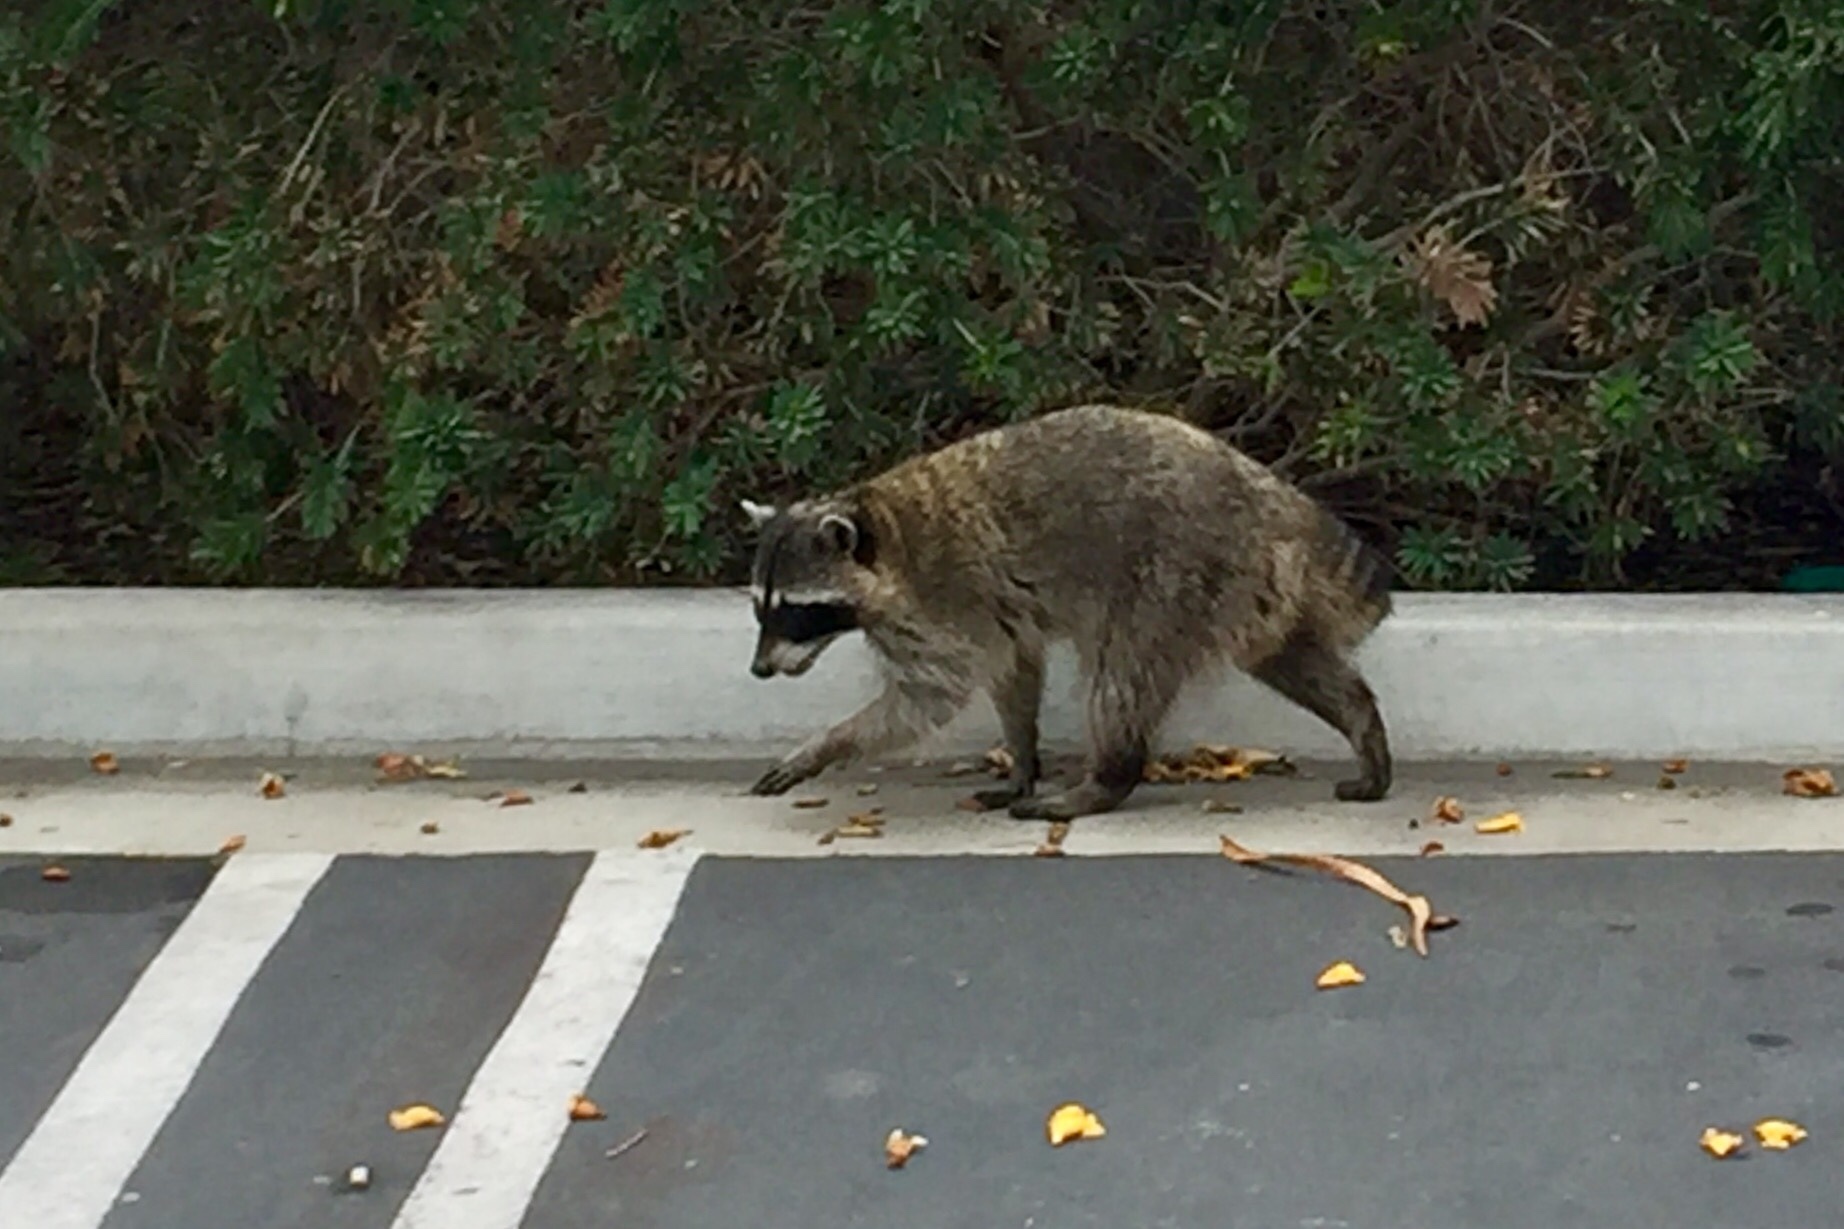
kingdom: Animalia
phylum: Chordata
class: Mammalia
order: Carnivora
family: Procyonidae
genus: Procyon
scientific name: Procyon lotor
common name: Raccoon
